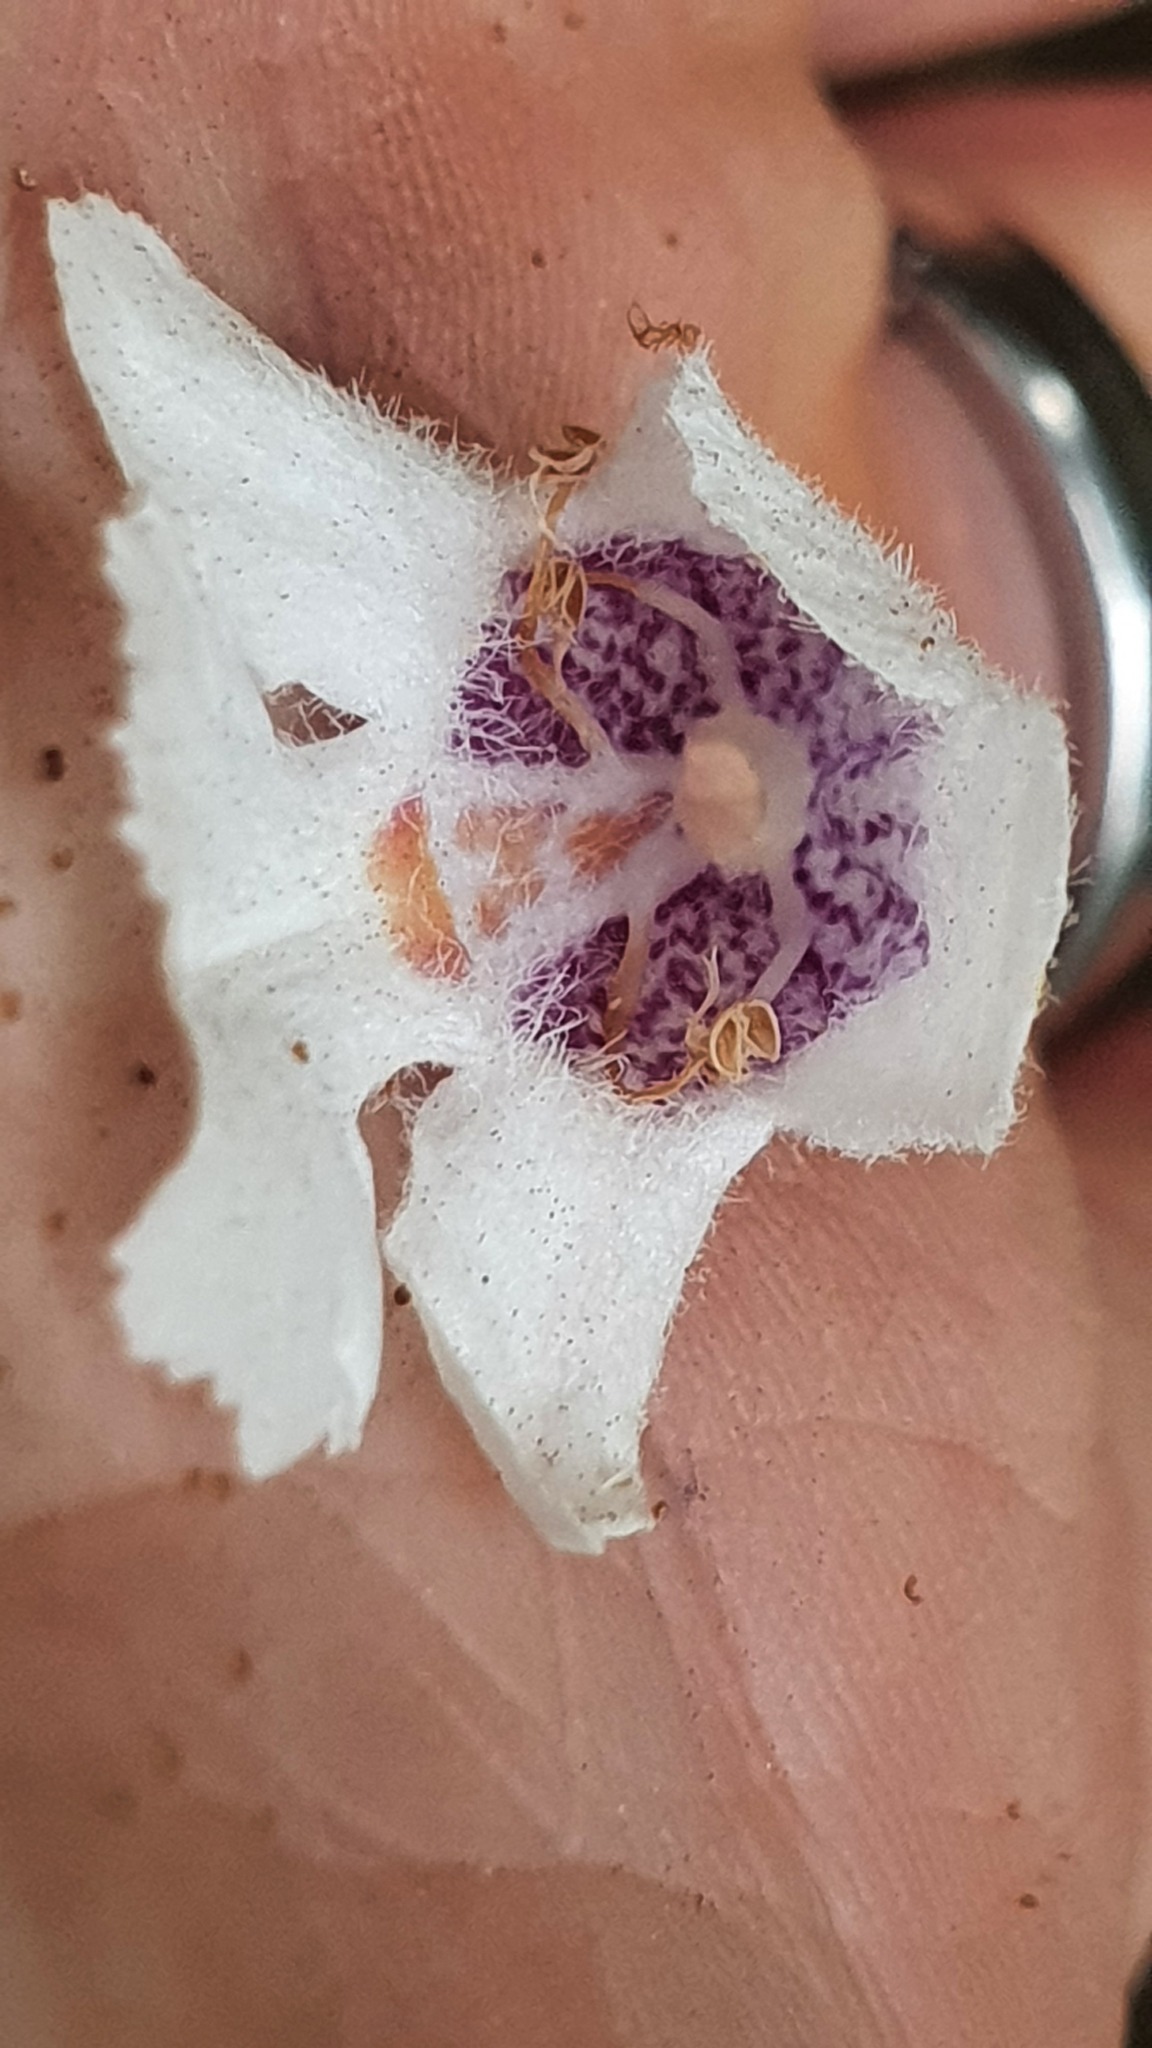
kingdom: Plantae
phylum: Tracheophyta
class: Magnoliopsida
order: Lamiales
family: Lamiaceae
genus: Prostanthera
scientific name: Prostanthera lasianthos
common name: Mountain-lilac
